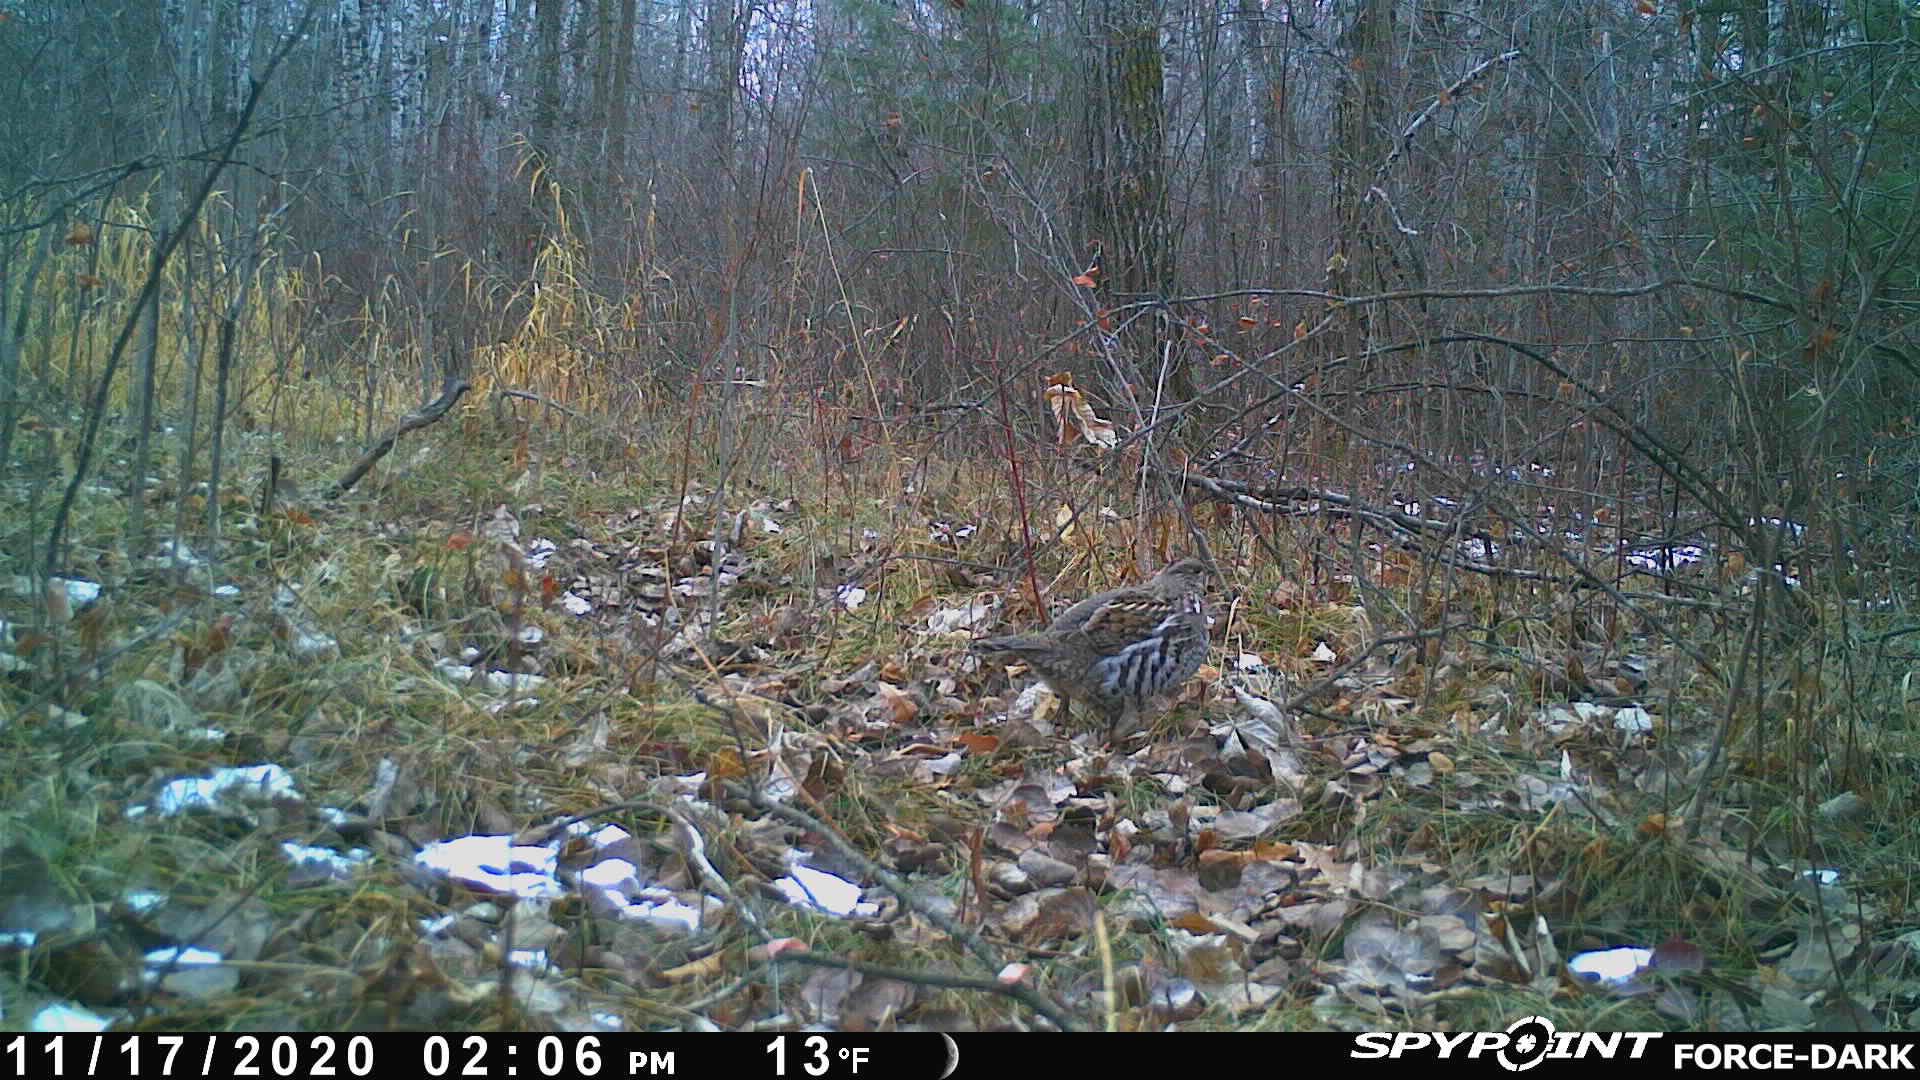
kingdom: Animalia
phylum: Chordata
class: Aves
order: Galliformes
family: Phasianidae
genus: Bonasa
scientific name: Bonasa umbellus
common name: Ruffed grouse
